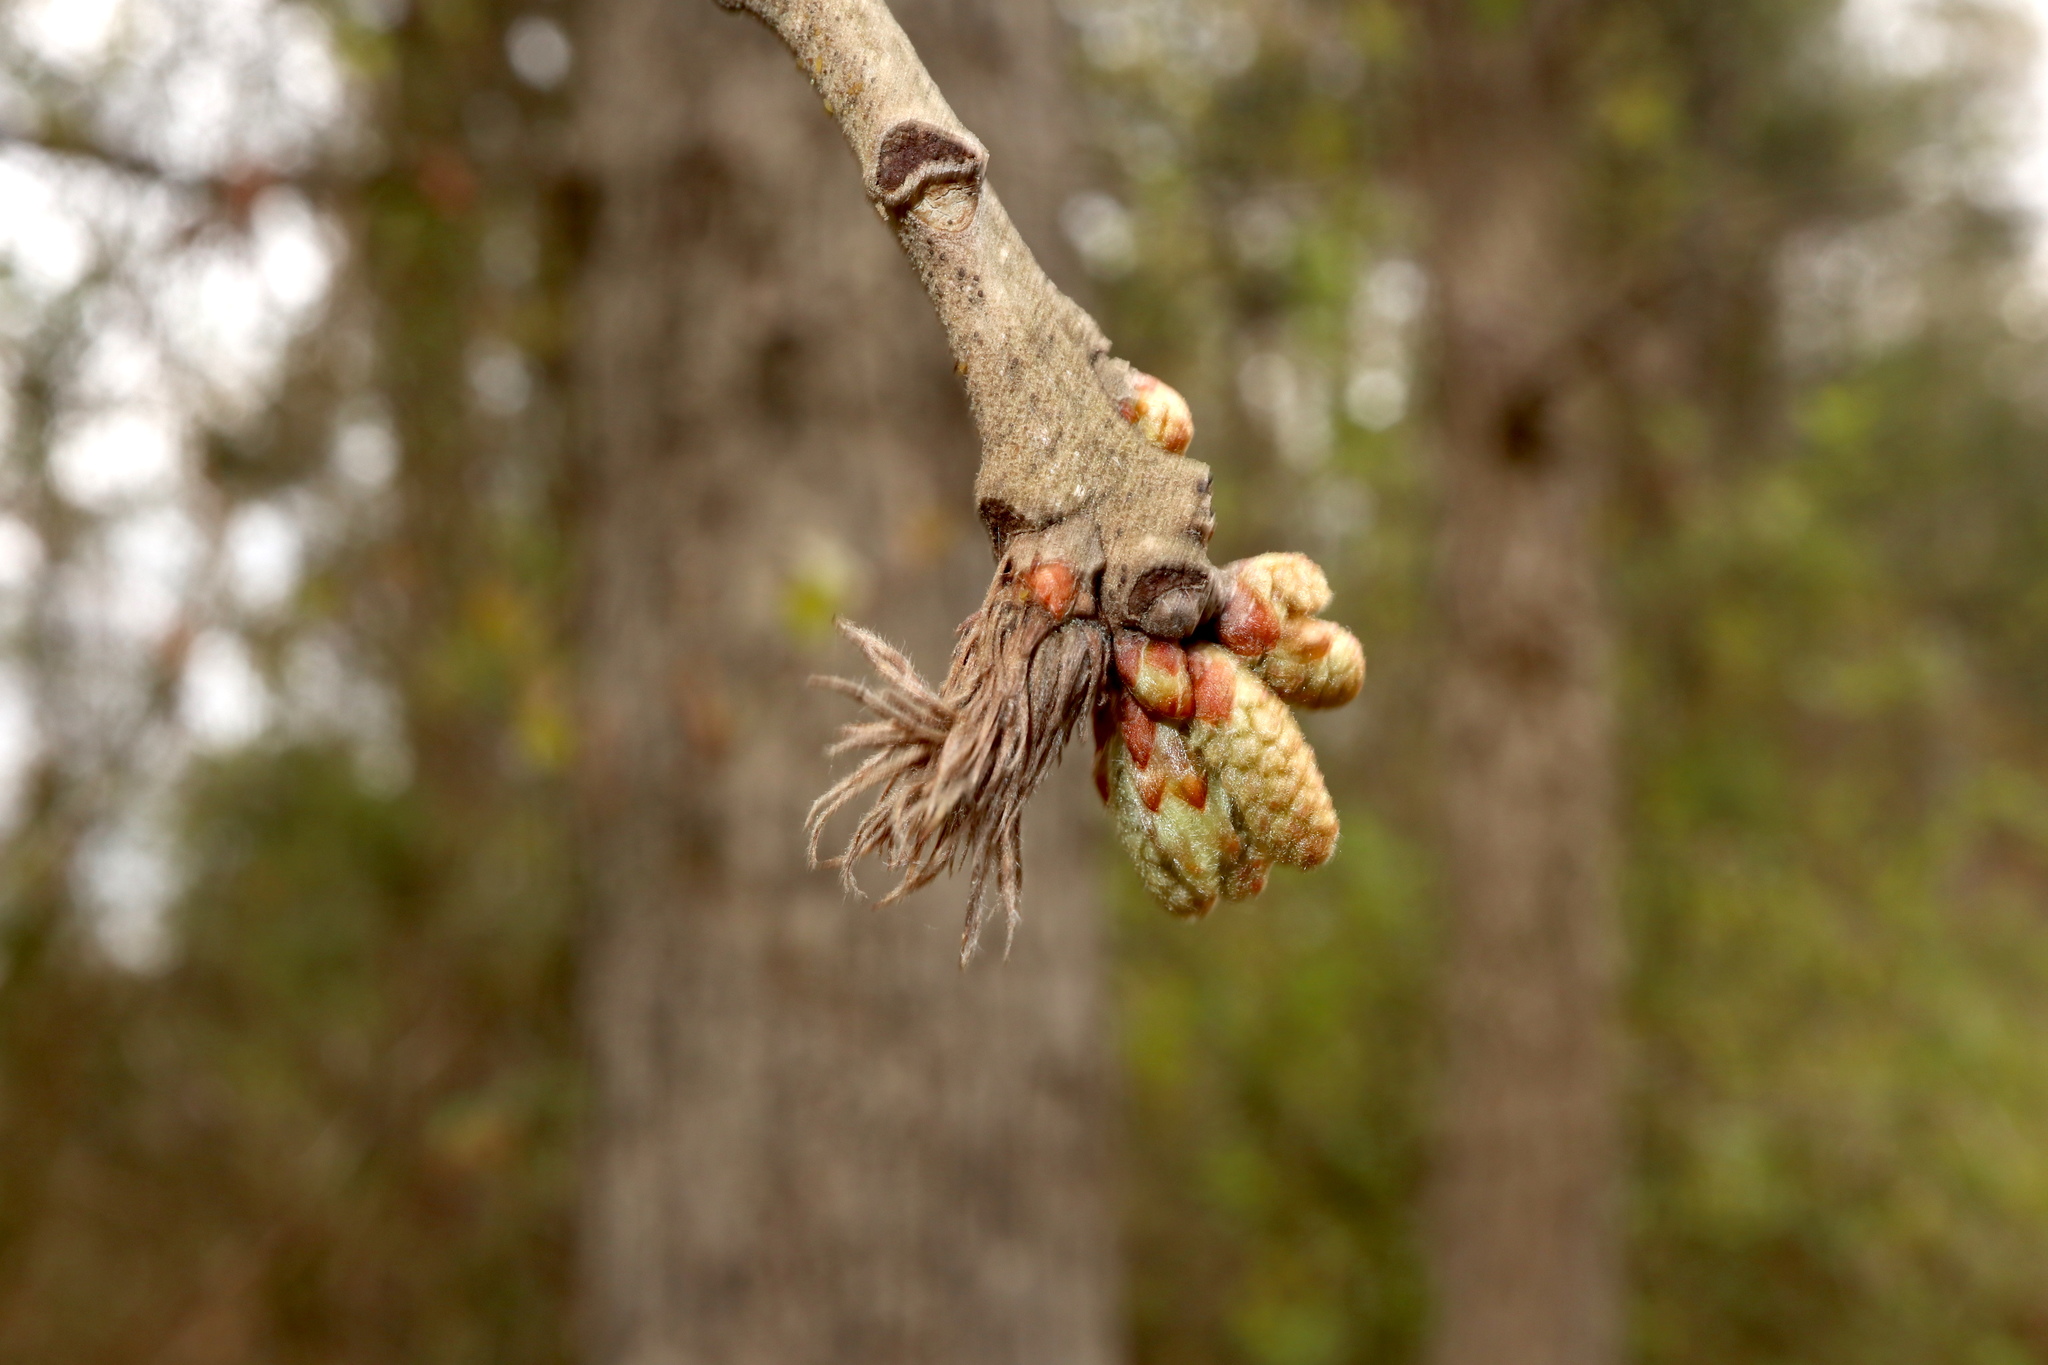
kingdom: Animalia
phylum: Arthropoda
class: Insecta
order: Hymenoptera
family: Cynipidae
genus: Andricus
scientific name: Andricus
